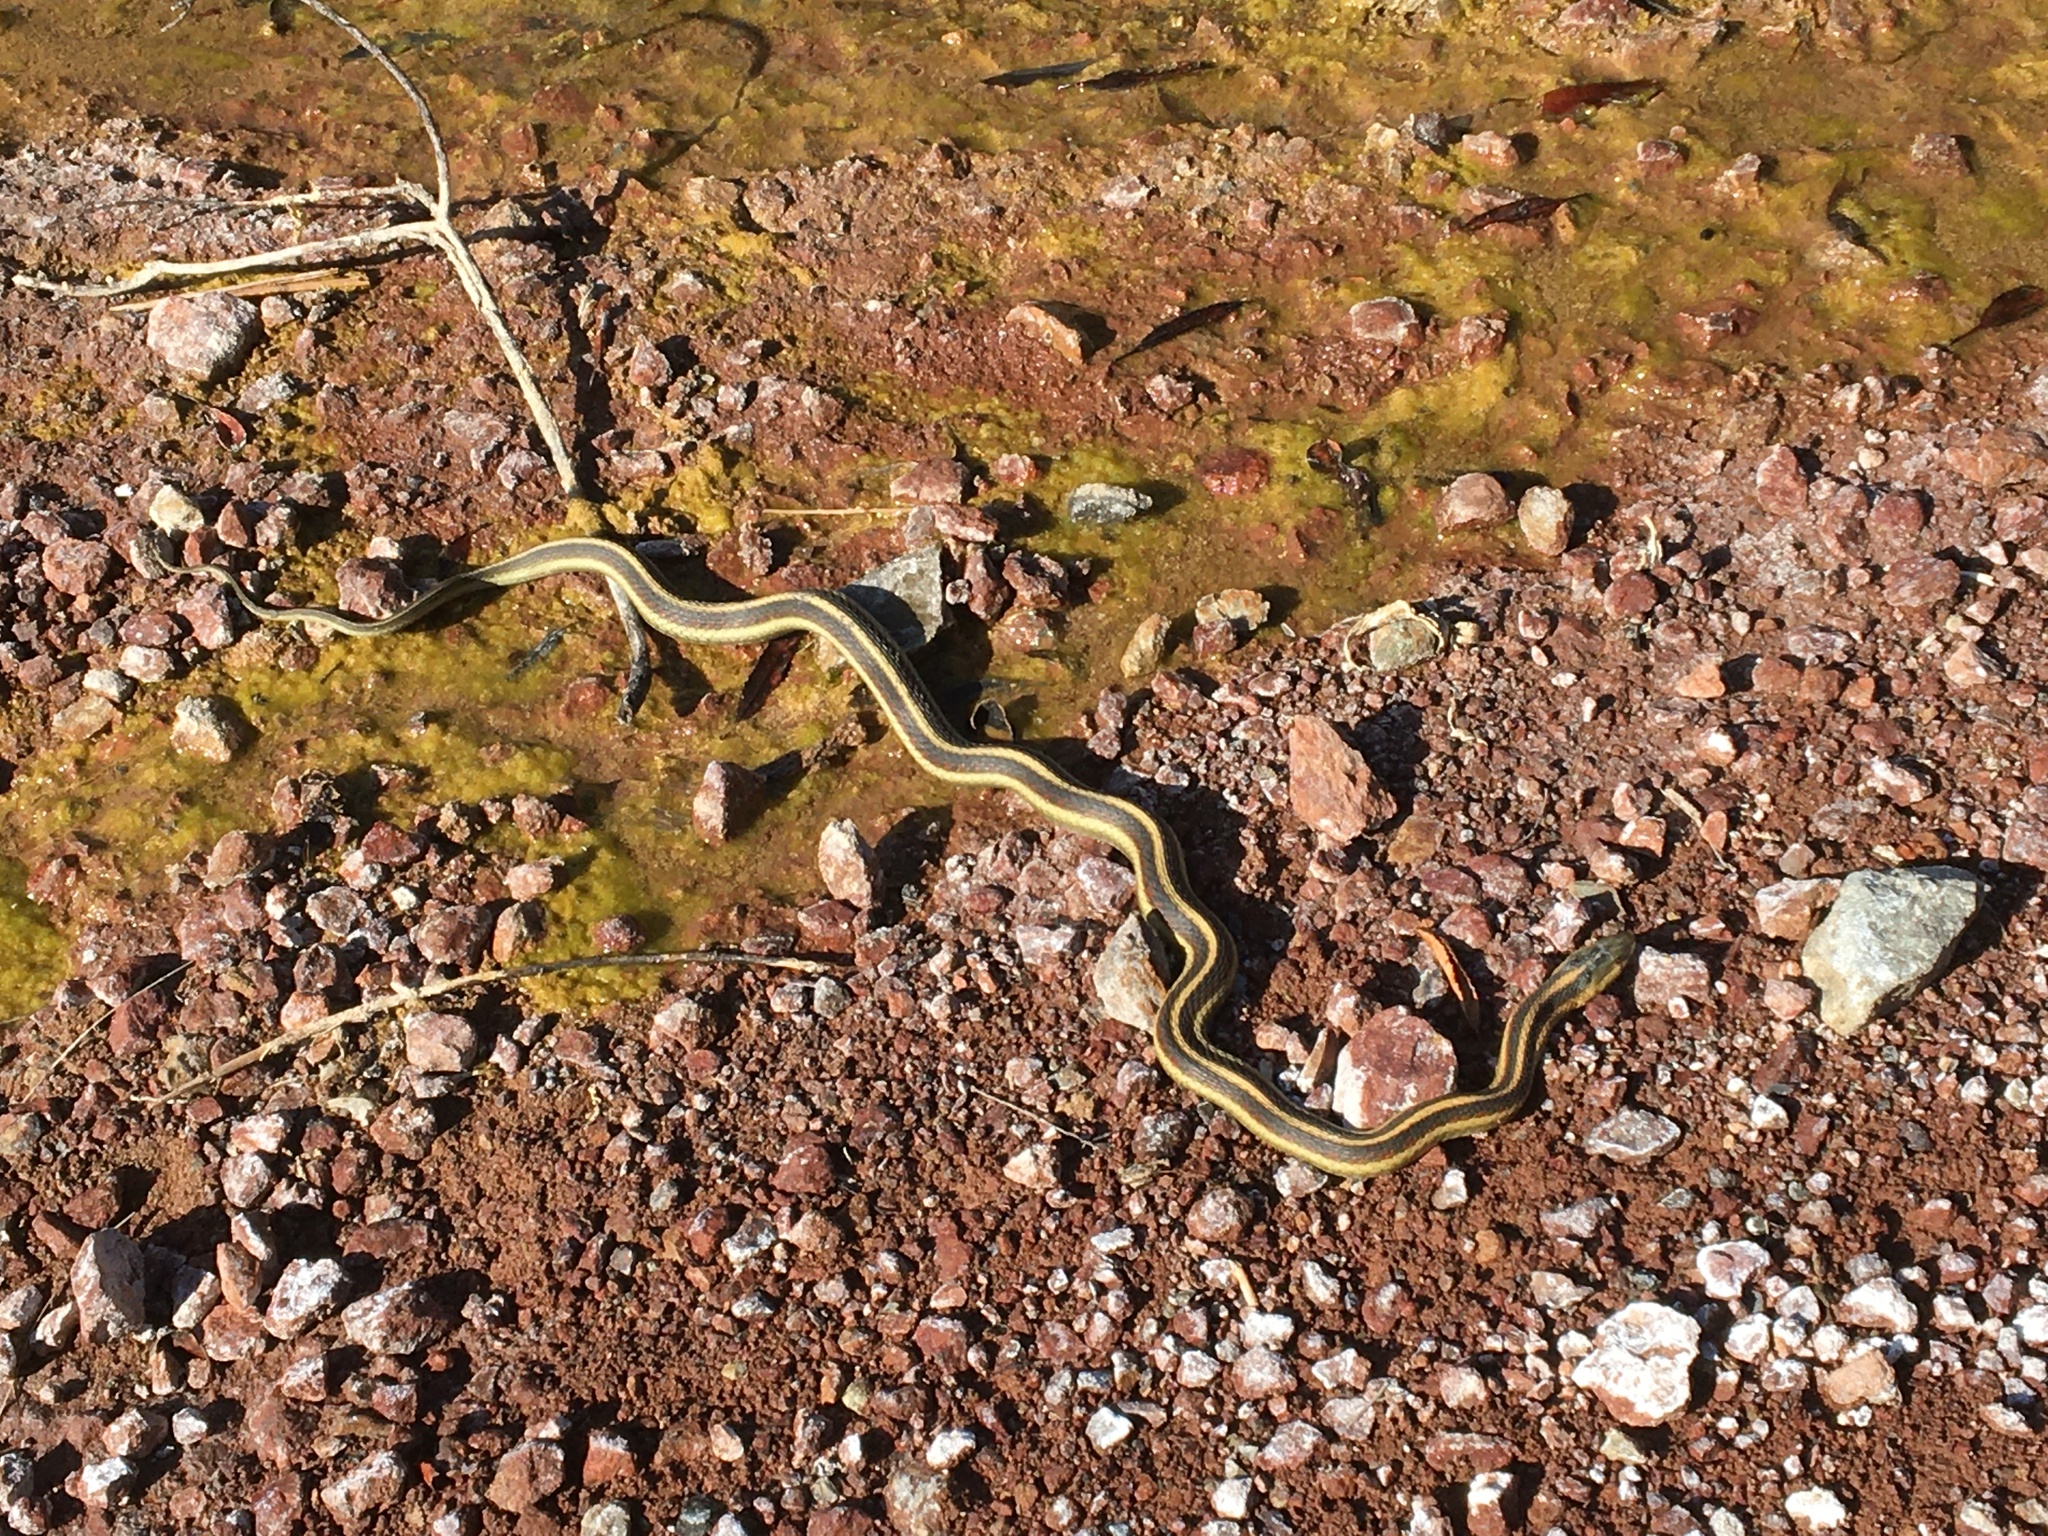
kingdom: Animalia
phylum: Chordata
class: Squamata
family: Colubridae
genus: Thamnophis
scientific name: Thamnophis sirtalis
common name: Common garter snake
